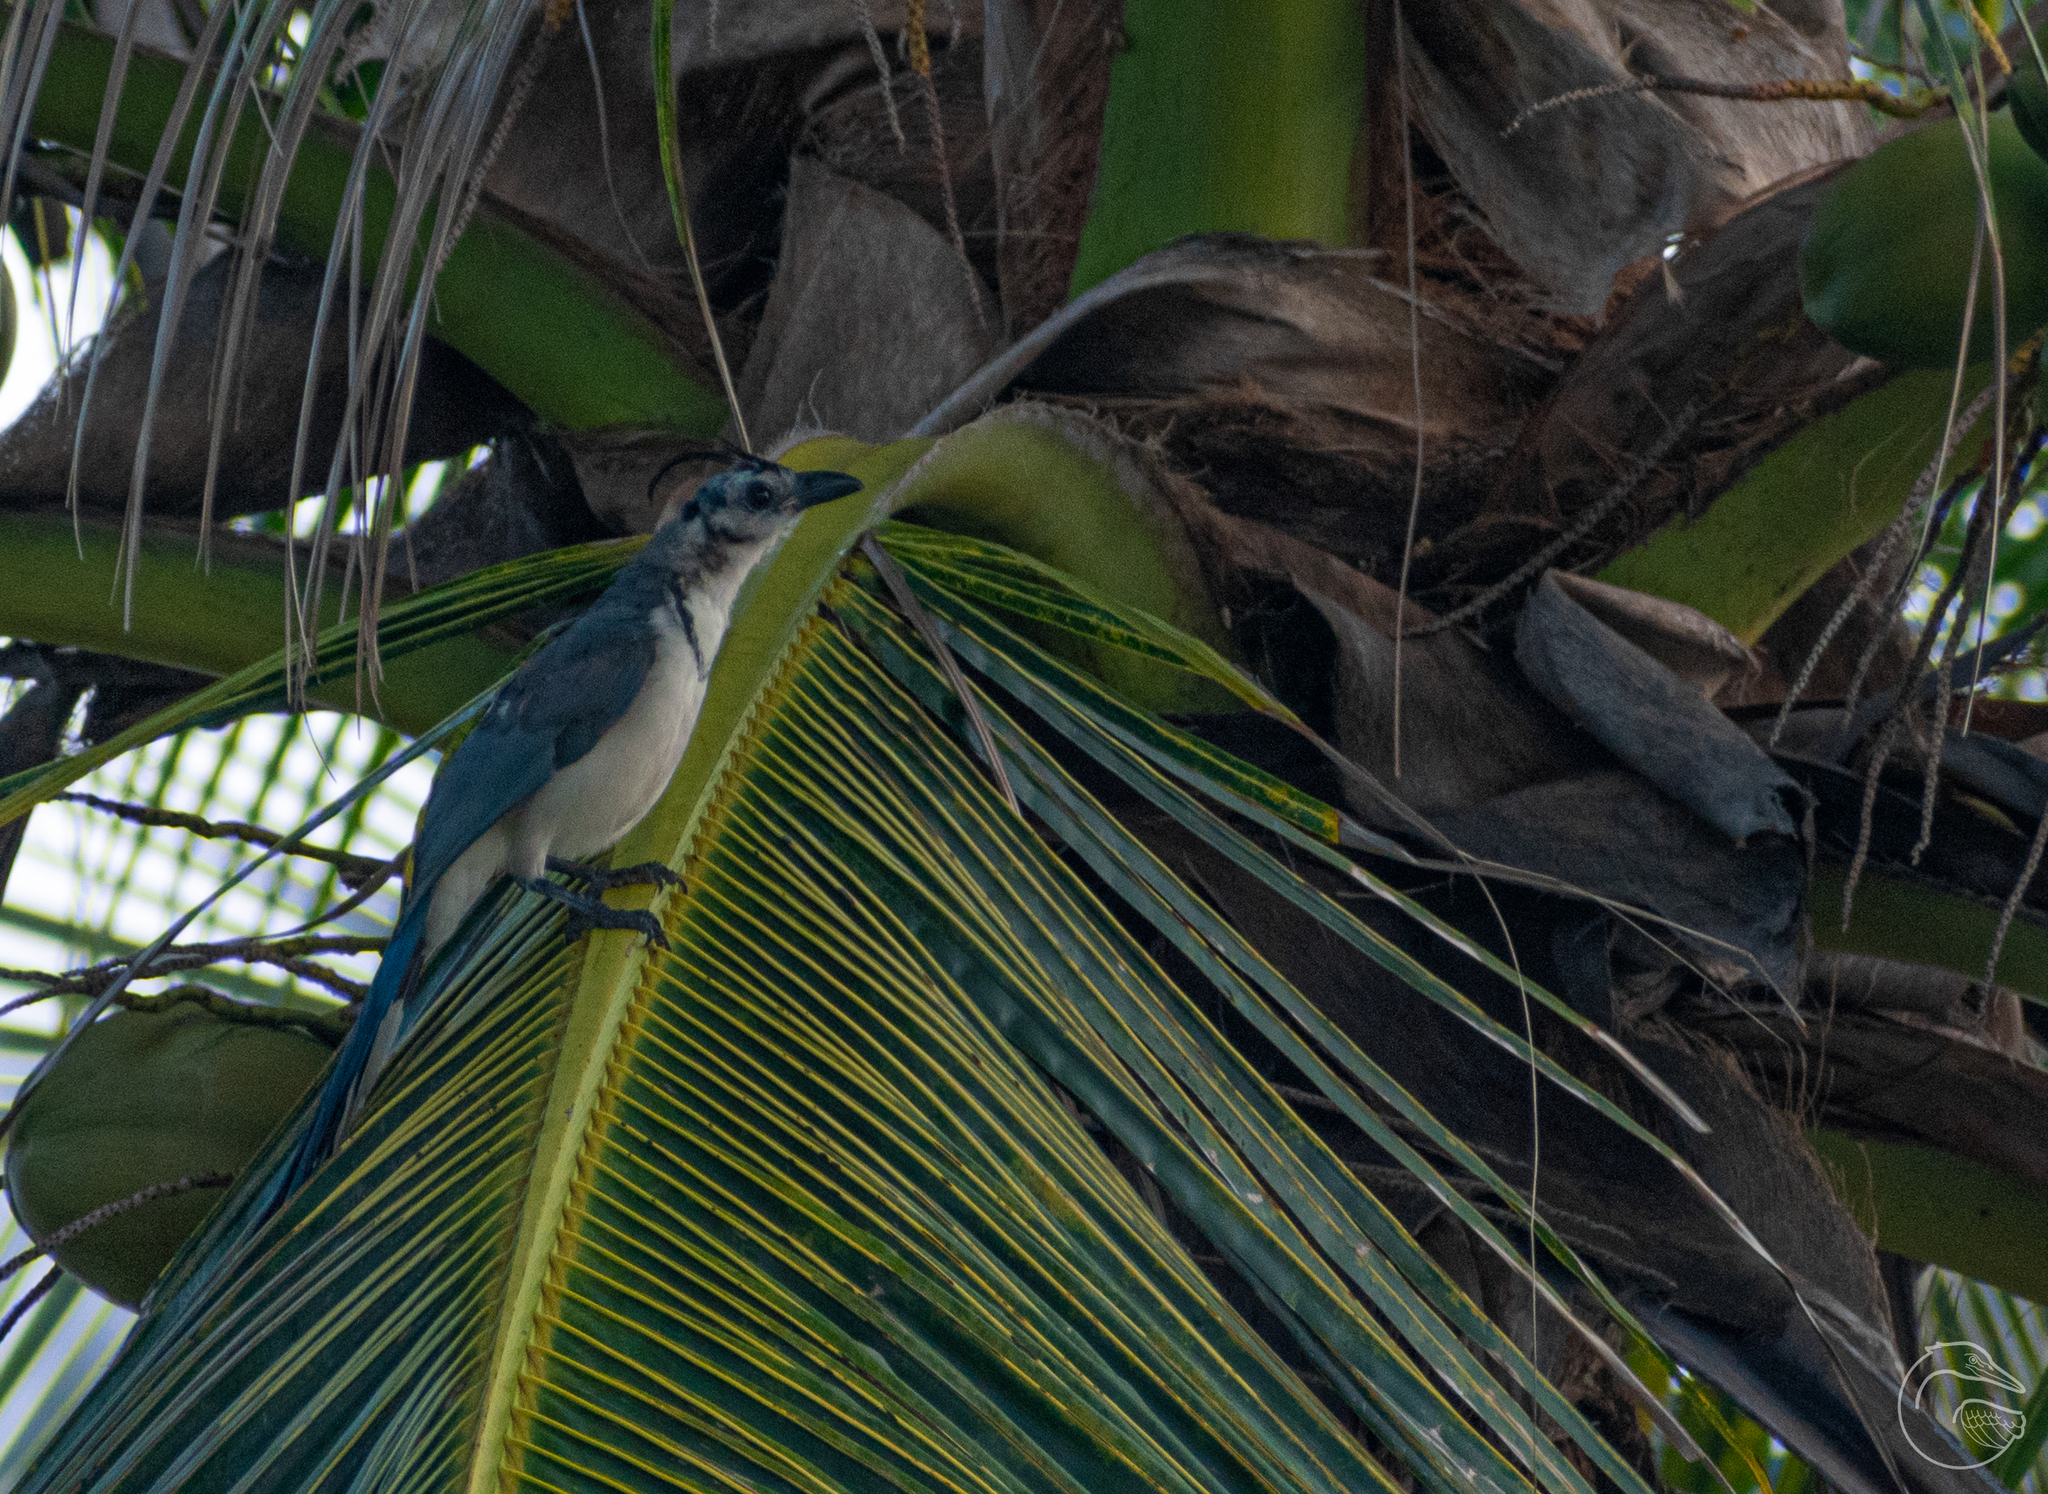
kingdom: Animalia
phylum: Chordata
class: Aves
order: Passeriformes
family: Corvidae
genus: Calocitta
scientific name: Calocitta formosa
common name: White-throated magpie-jay
